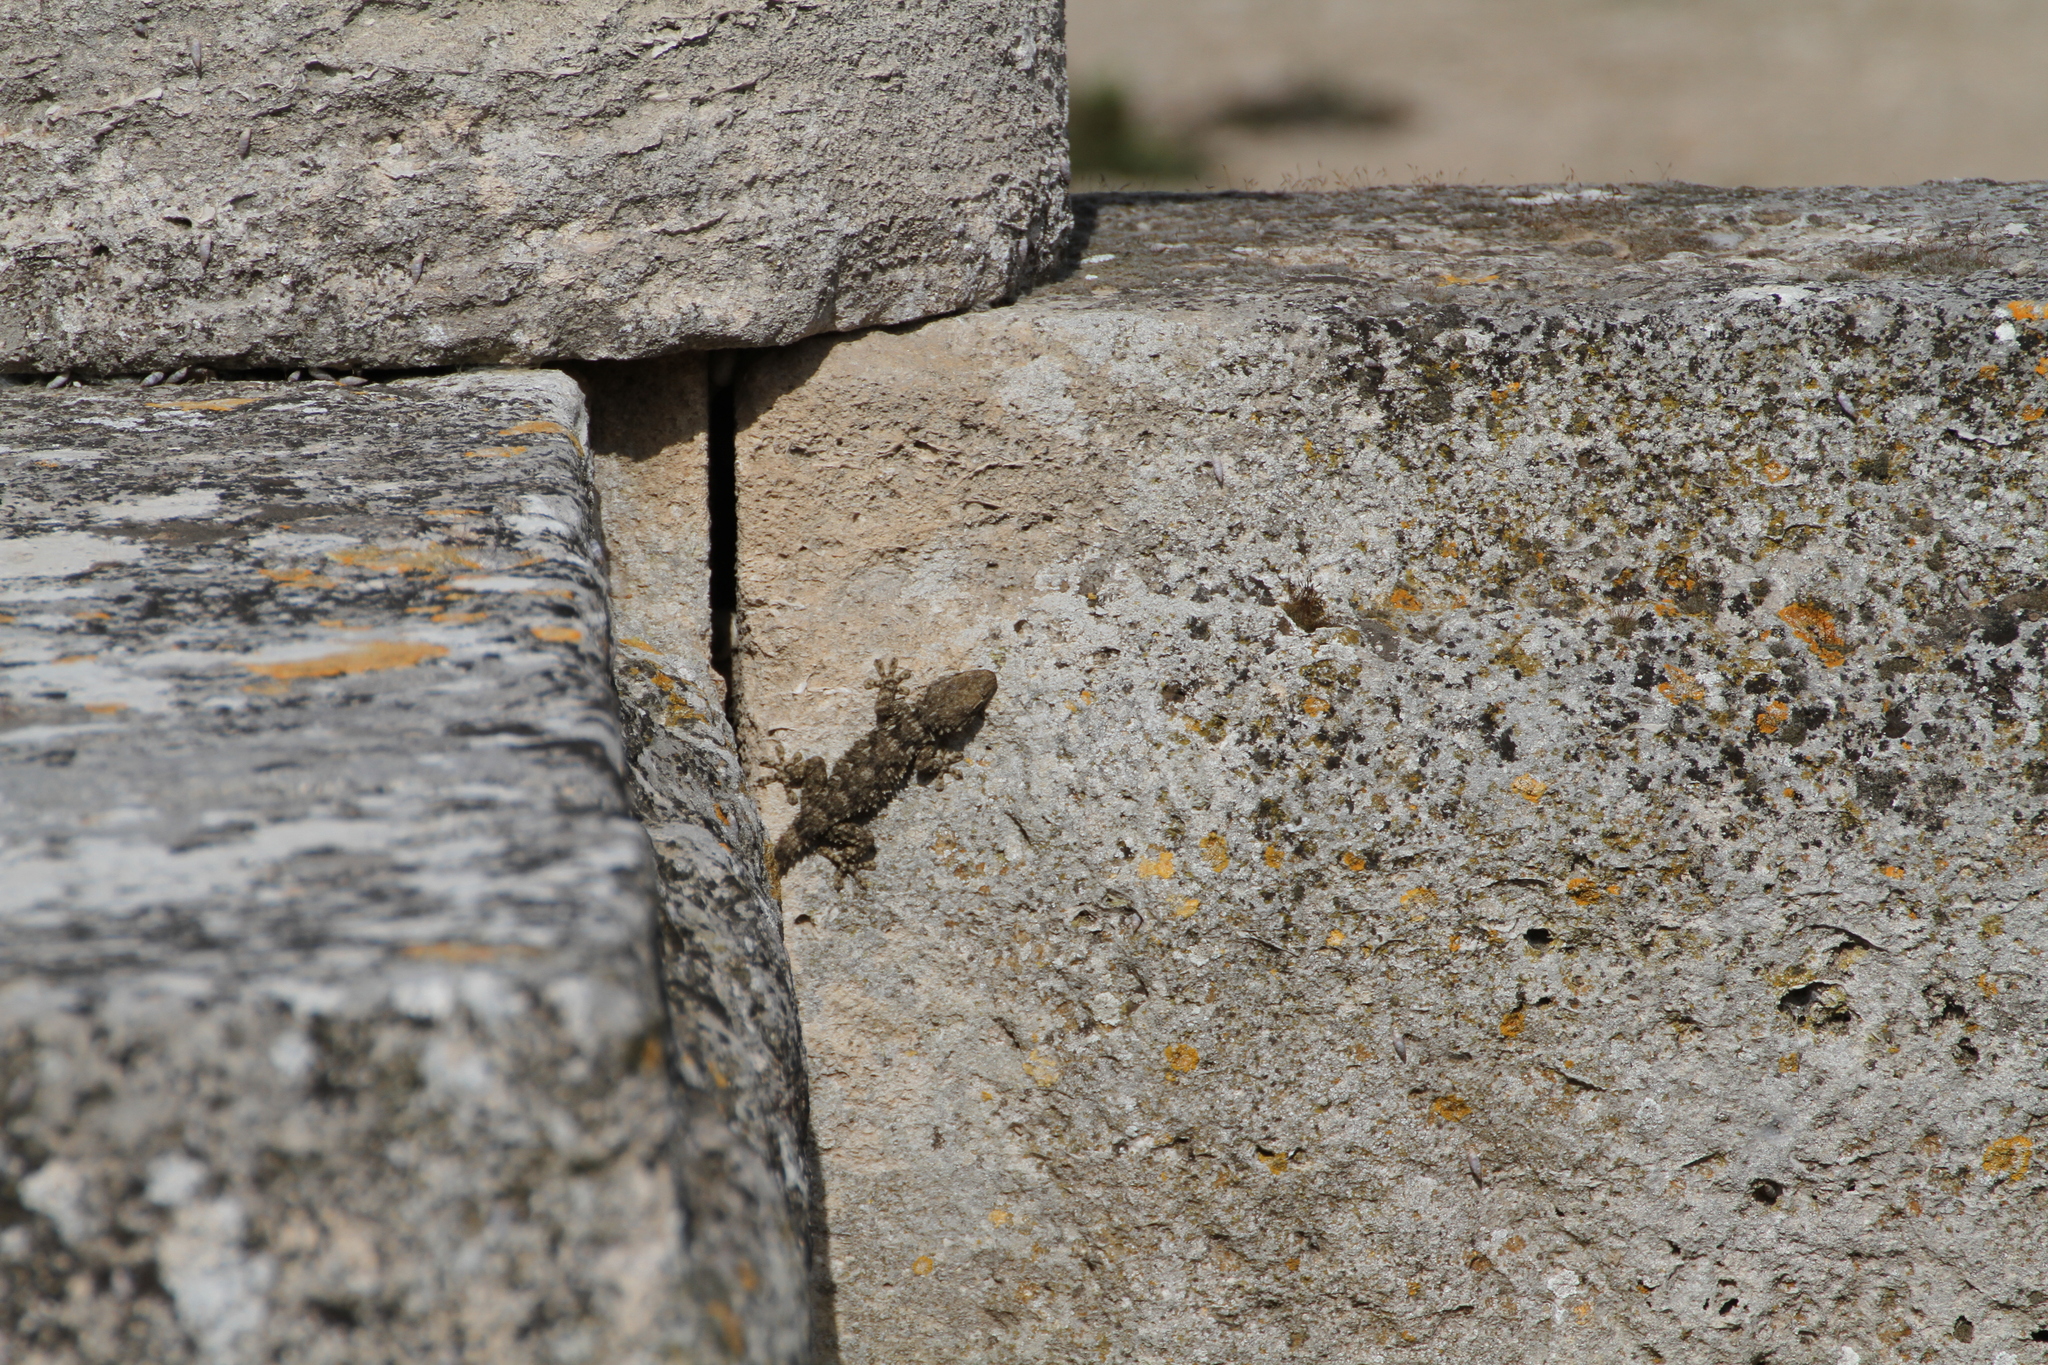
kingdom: Animalia
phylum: Chordata
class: Squamata
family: Phyllodactylidae
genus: Tarentola
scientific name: Tarentola mauritanica
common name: Moorish gecko
